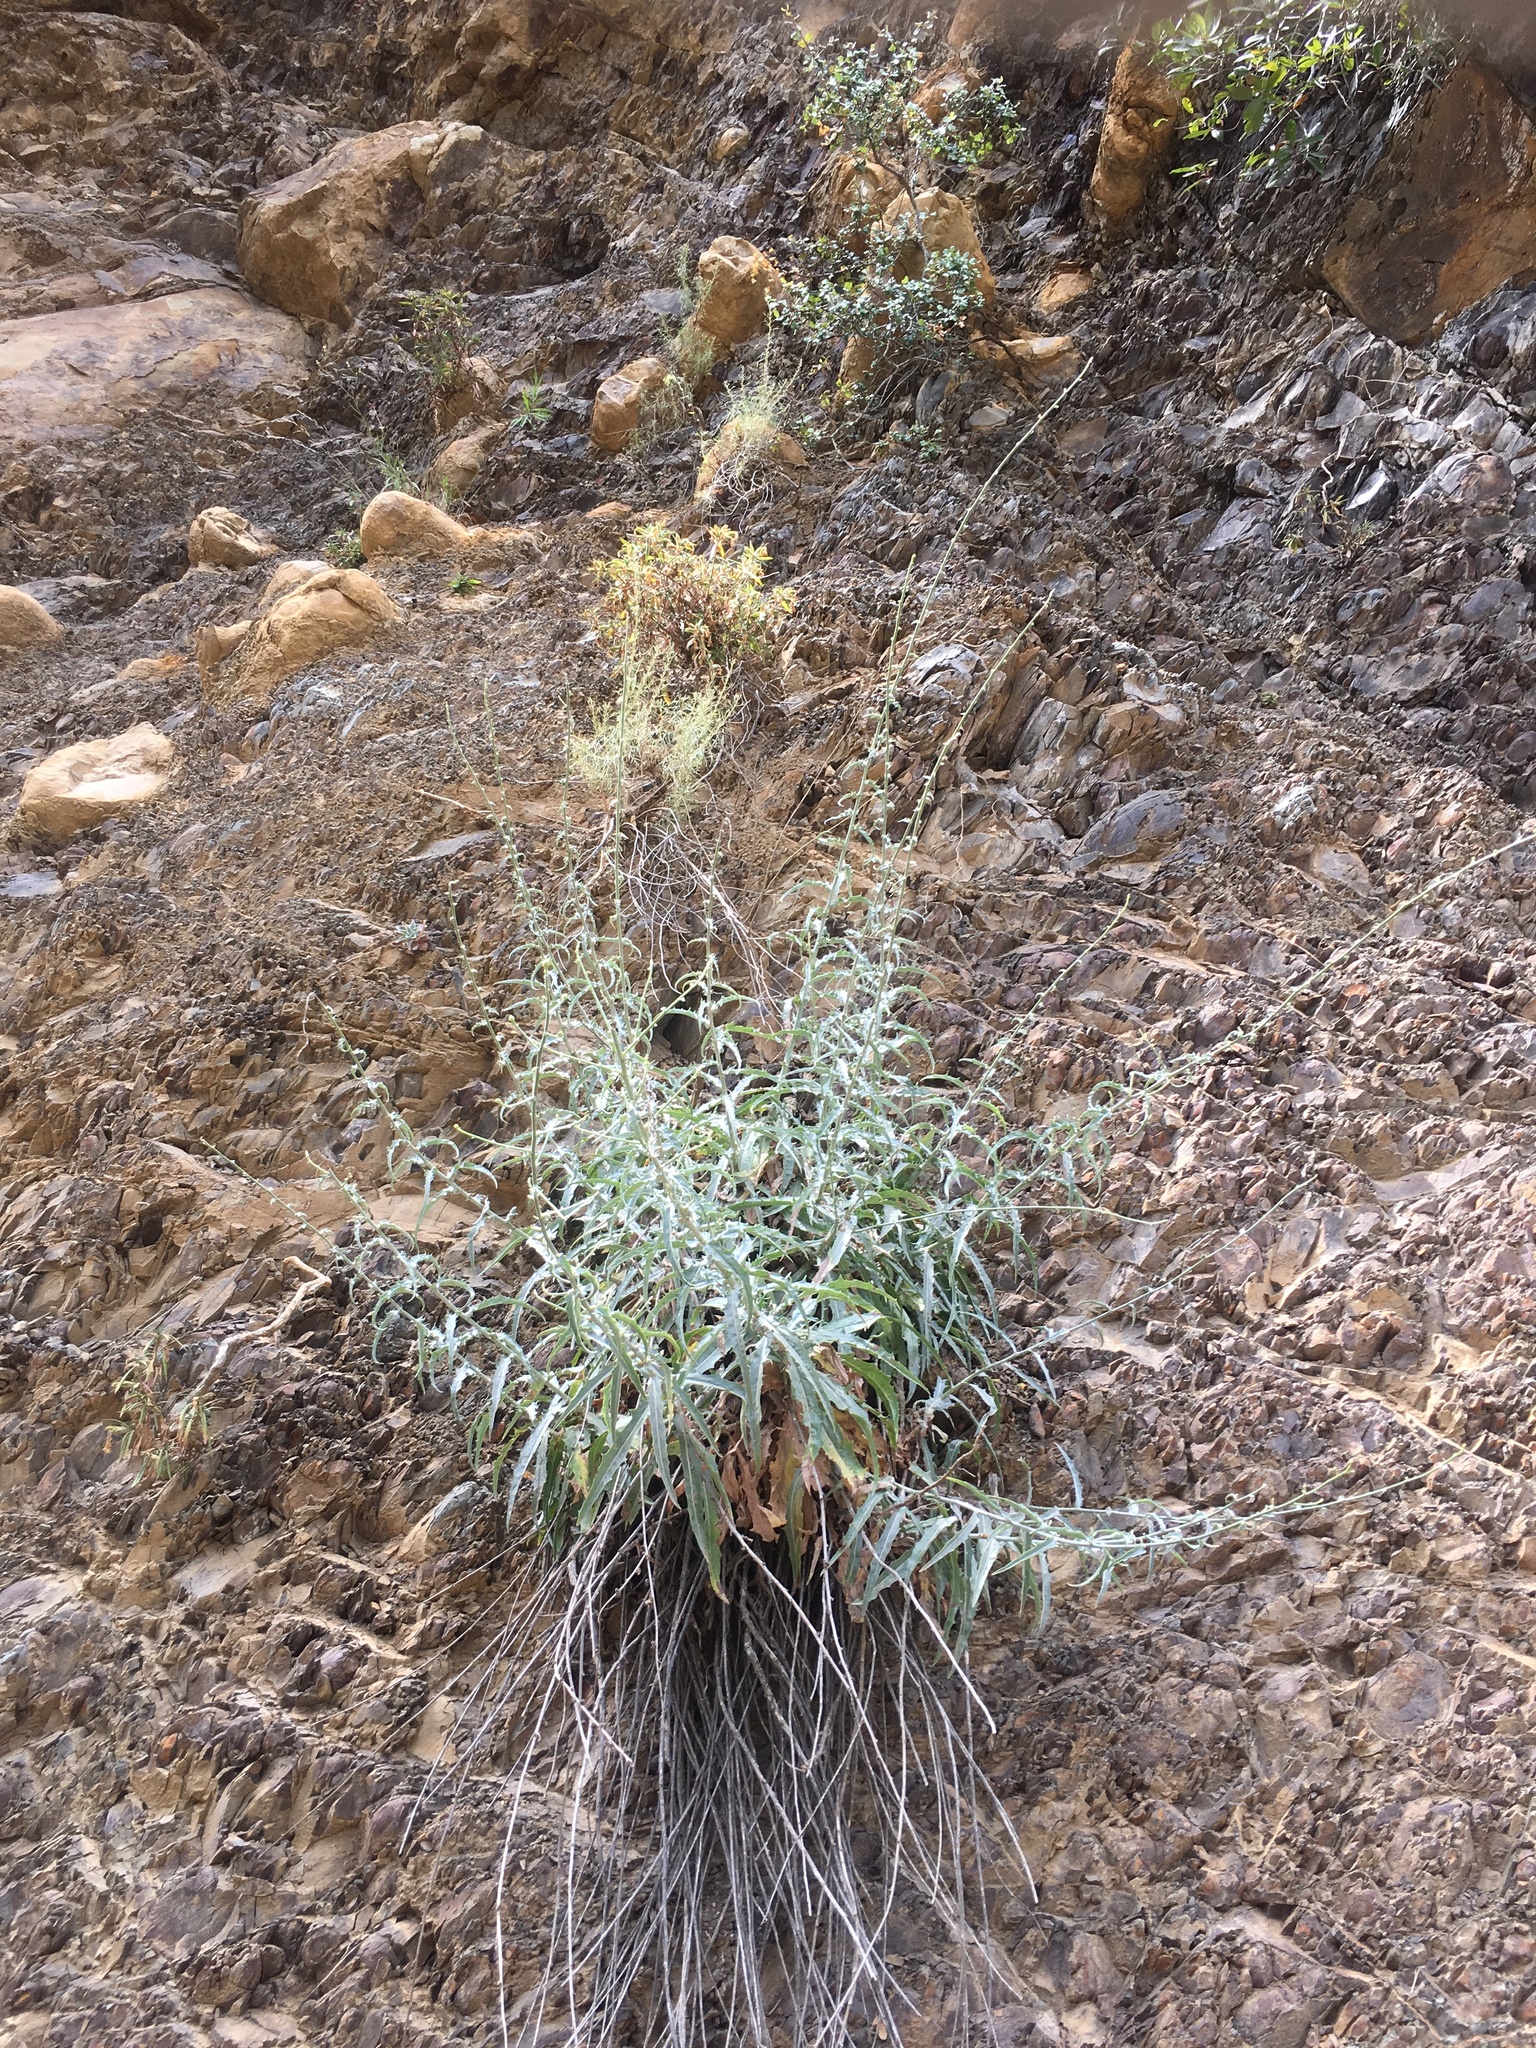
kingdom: Plantae
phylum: Tracheophyta
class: Magnoliopsida
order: Asterales
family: Asteraceae
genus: Stephanomeria
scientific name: Stephanomeria cichoriacea
